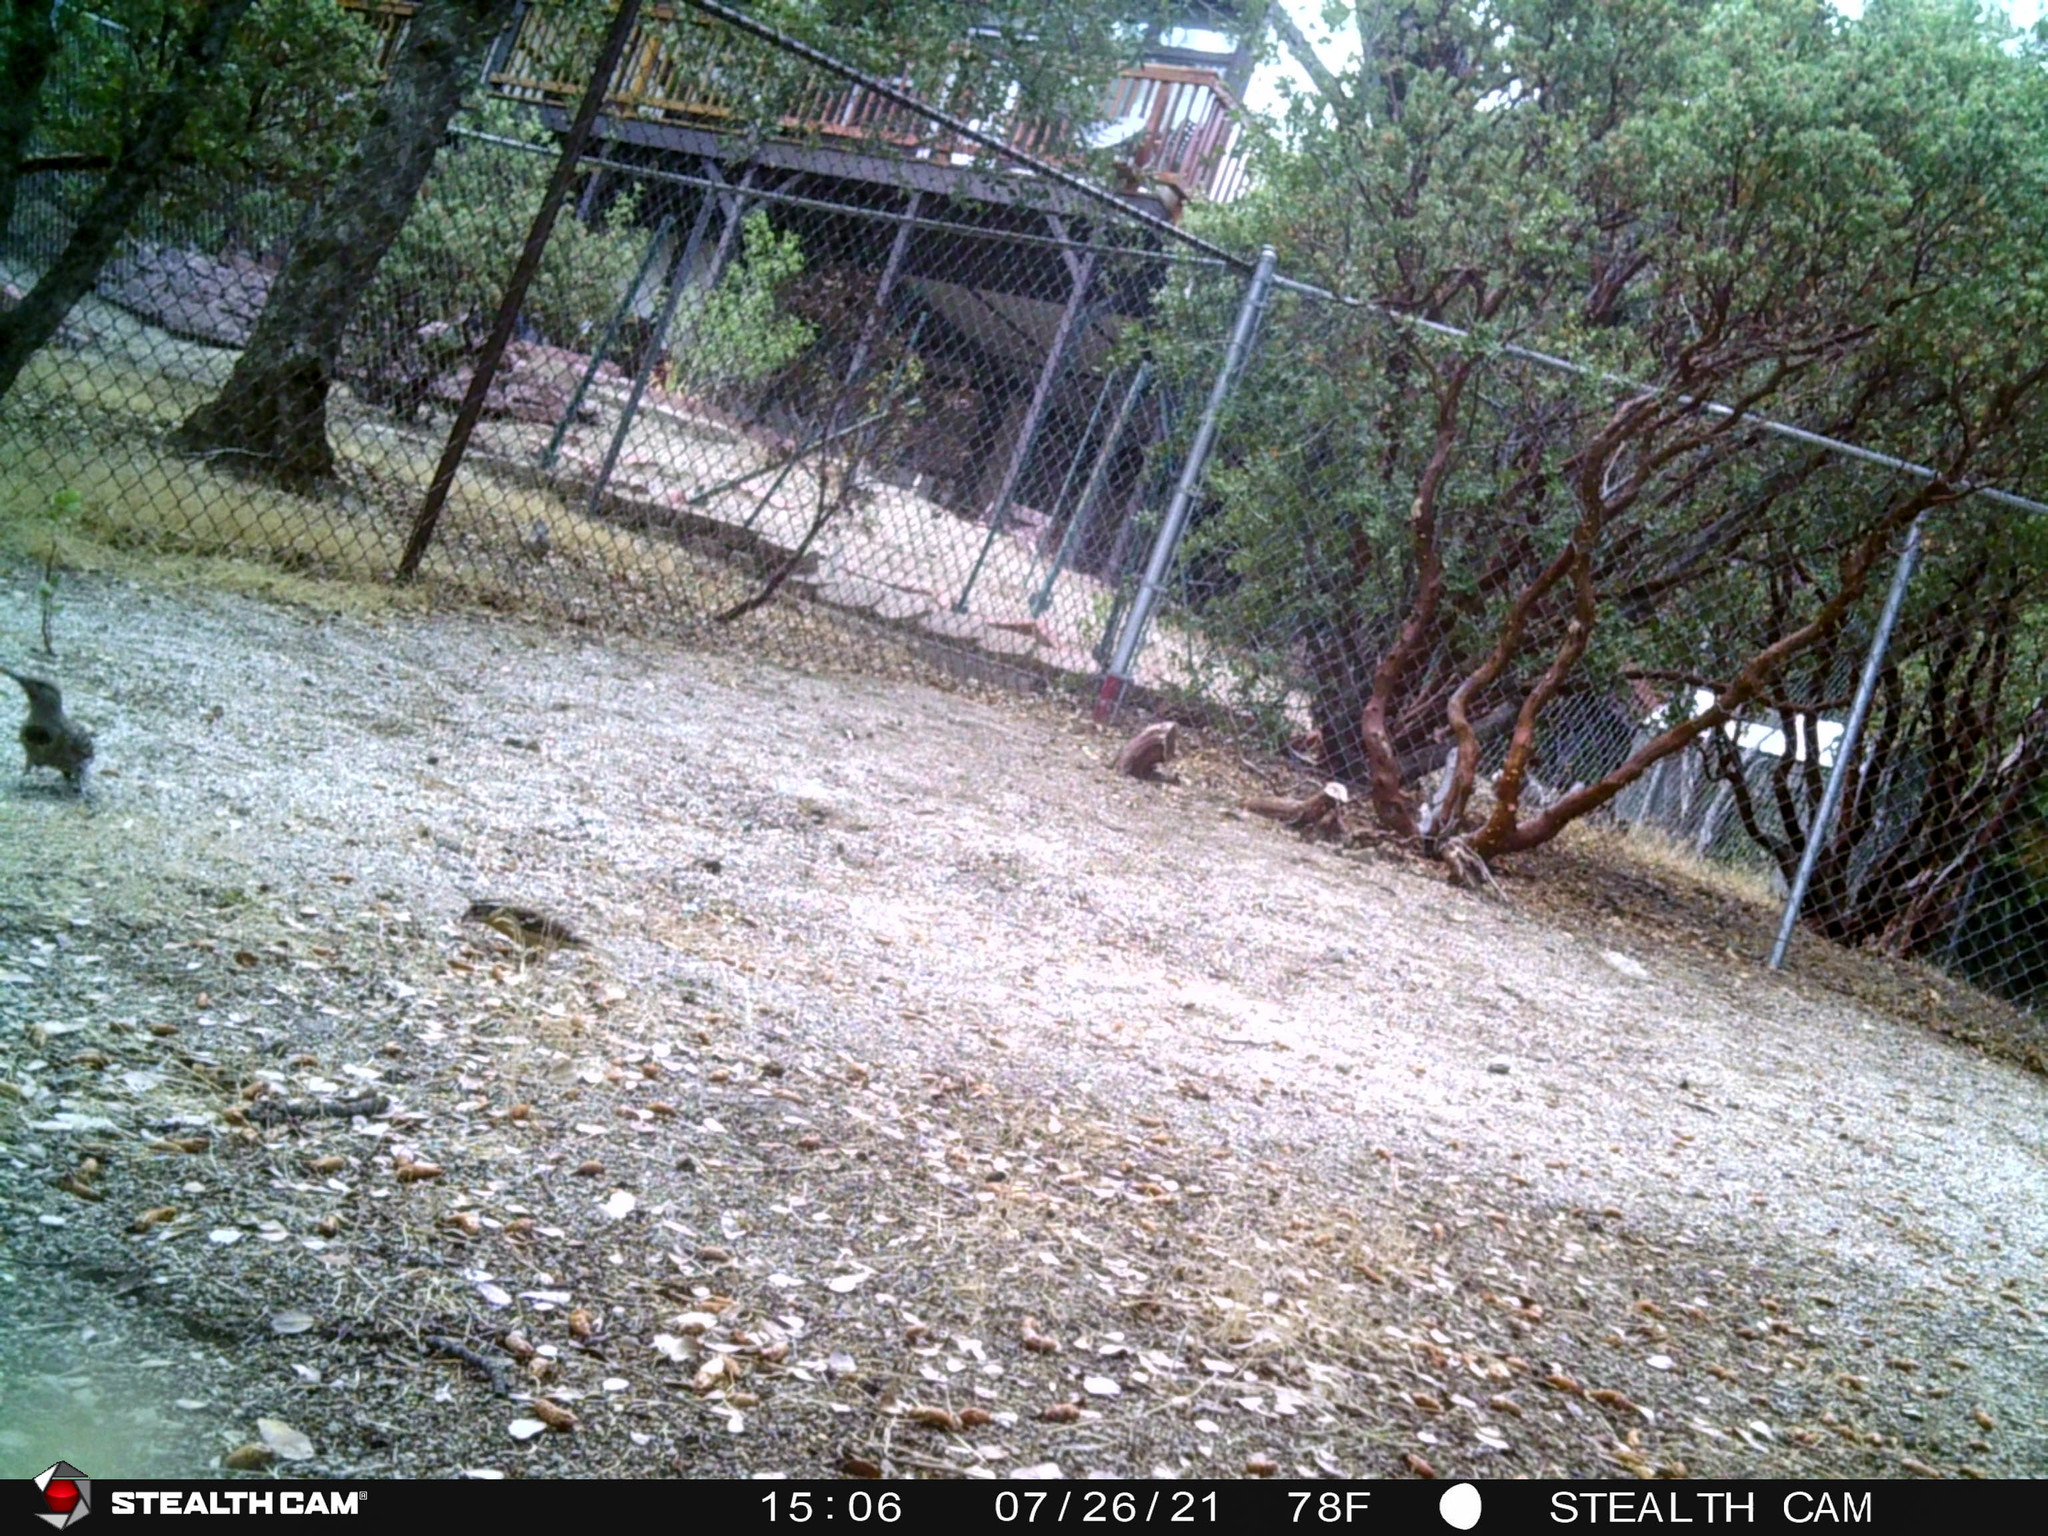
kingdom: Animalia
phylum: Chordata
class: Aves
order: Passeriformes
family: Cardinalidae
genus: Pheucticus
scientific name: Pheucticus melanocephalus
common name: Black-headed grosbeak
